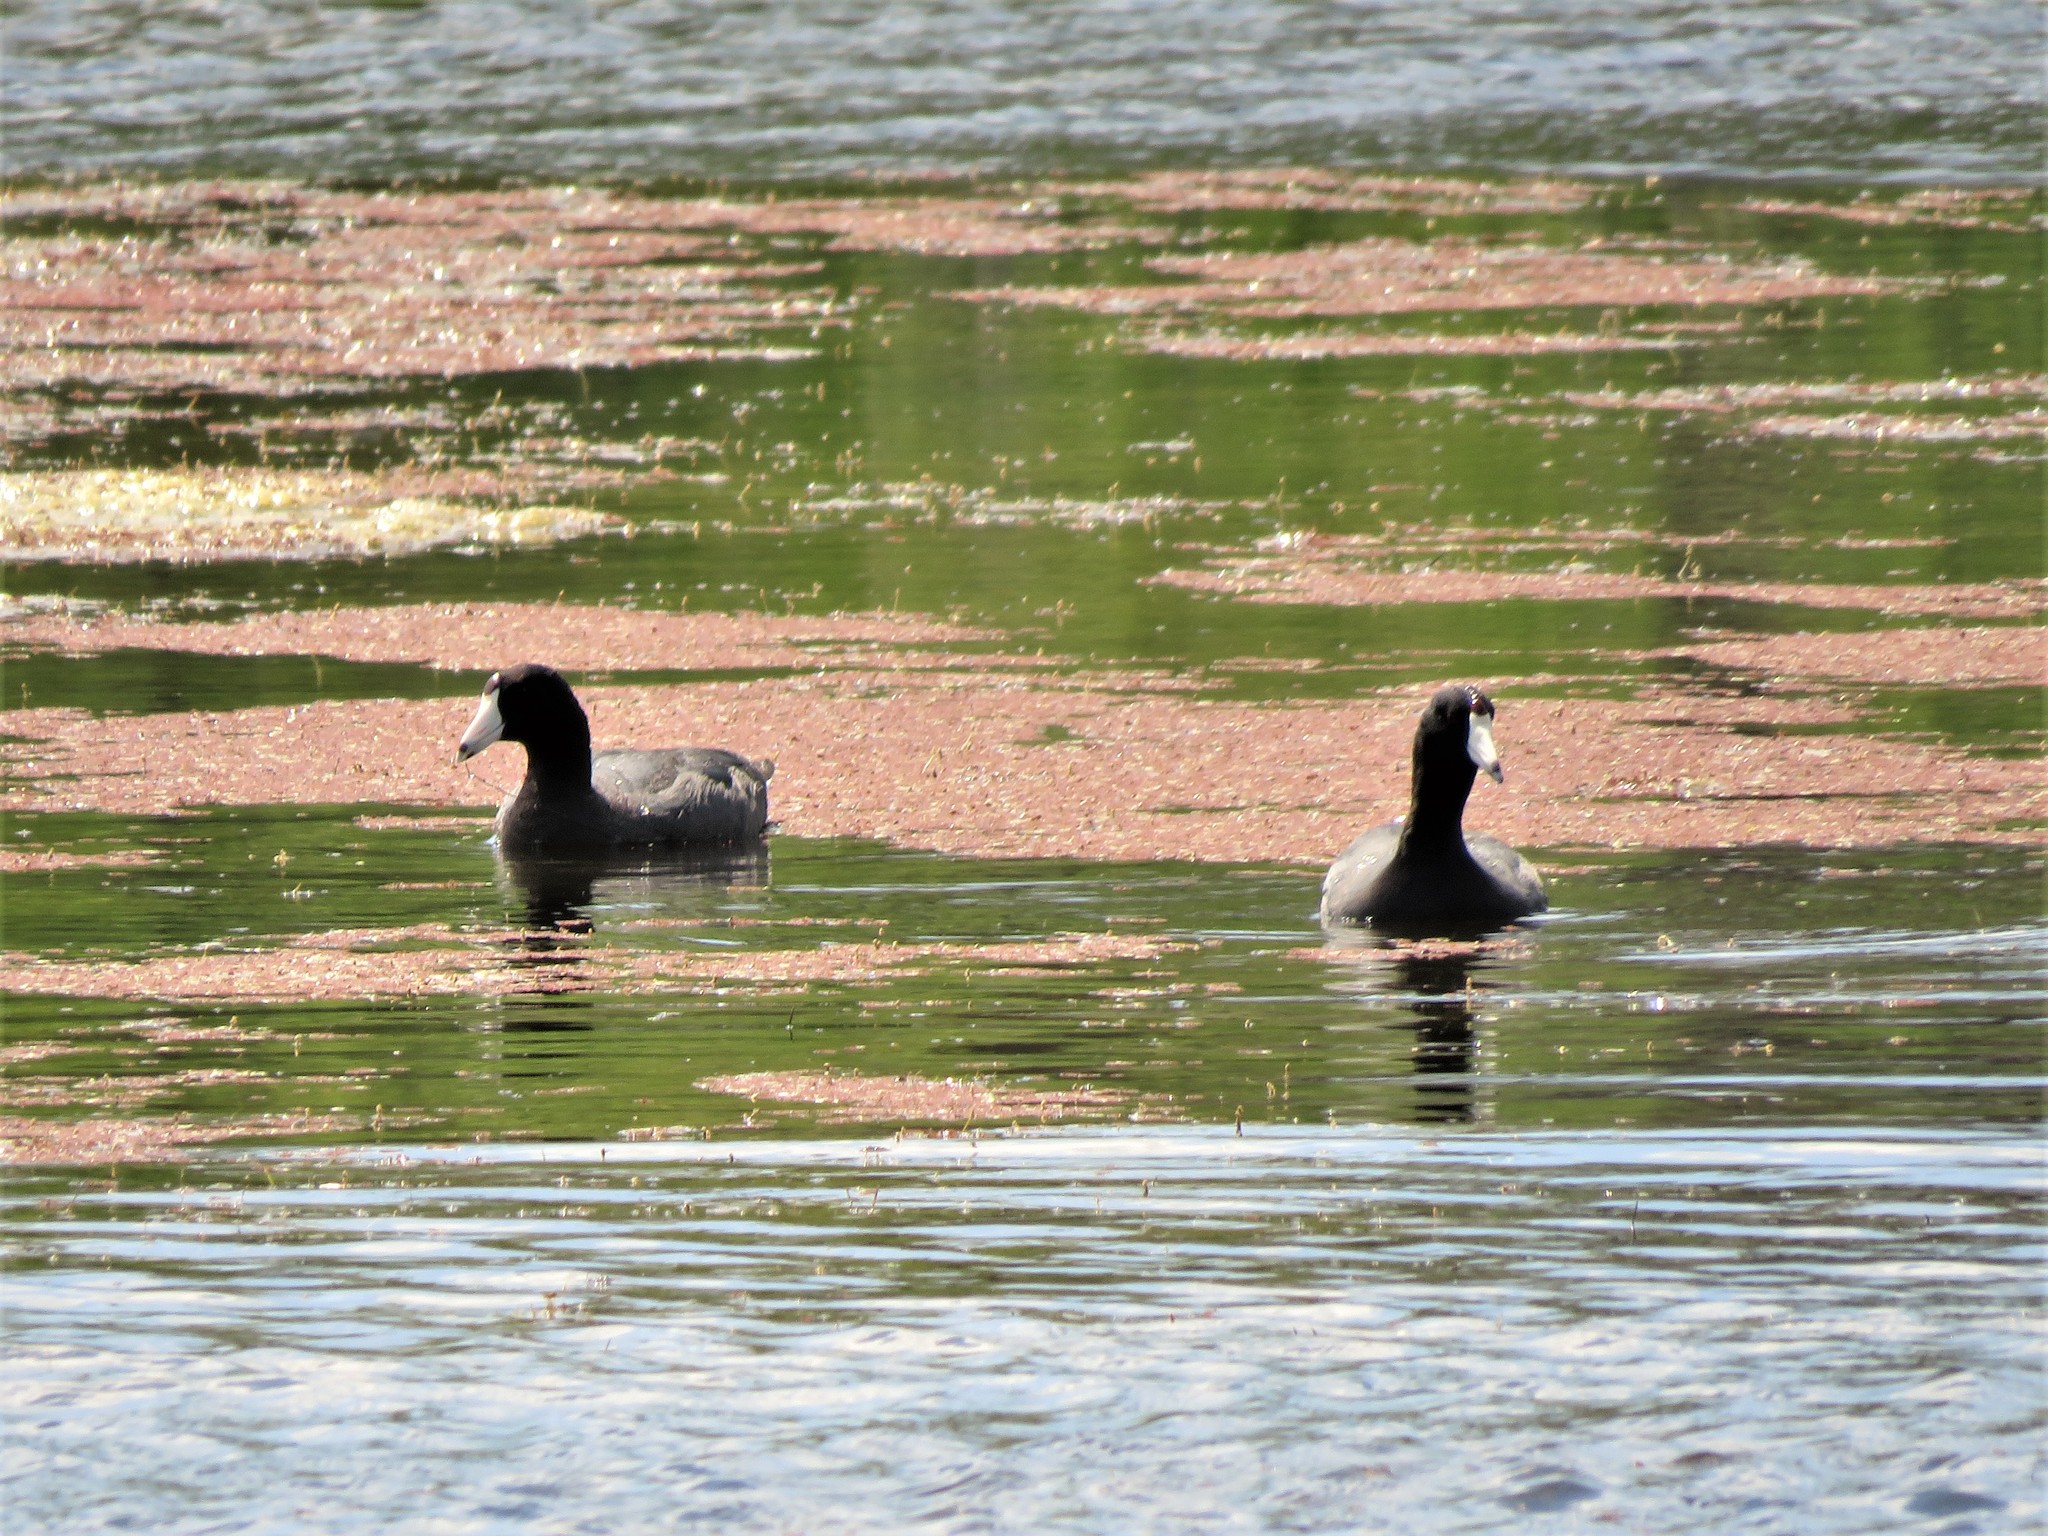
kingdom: Animalia
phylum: Chordata
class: Aves
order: Gruiformes
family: Rallidae
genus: Fulica
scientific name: Fulica americana
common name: American coot
